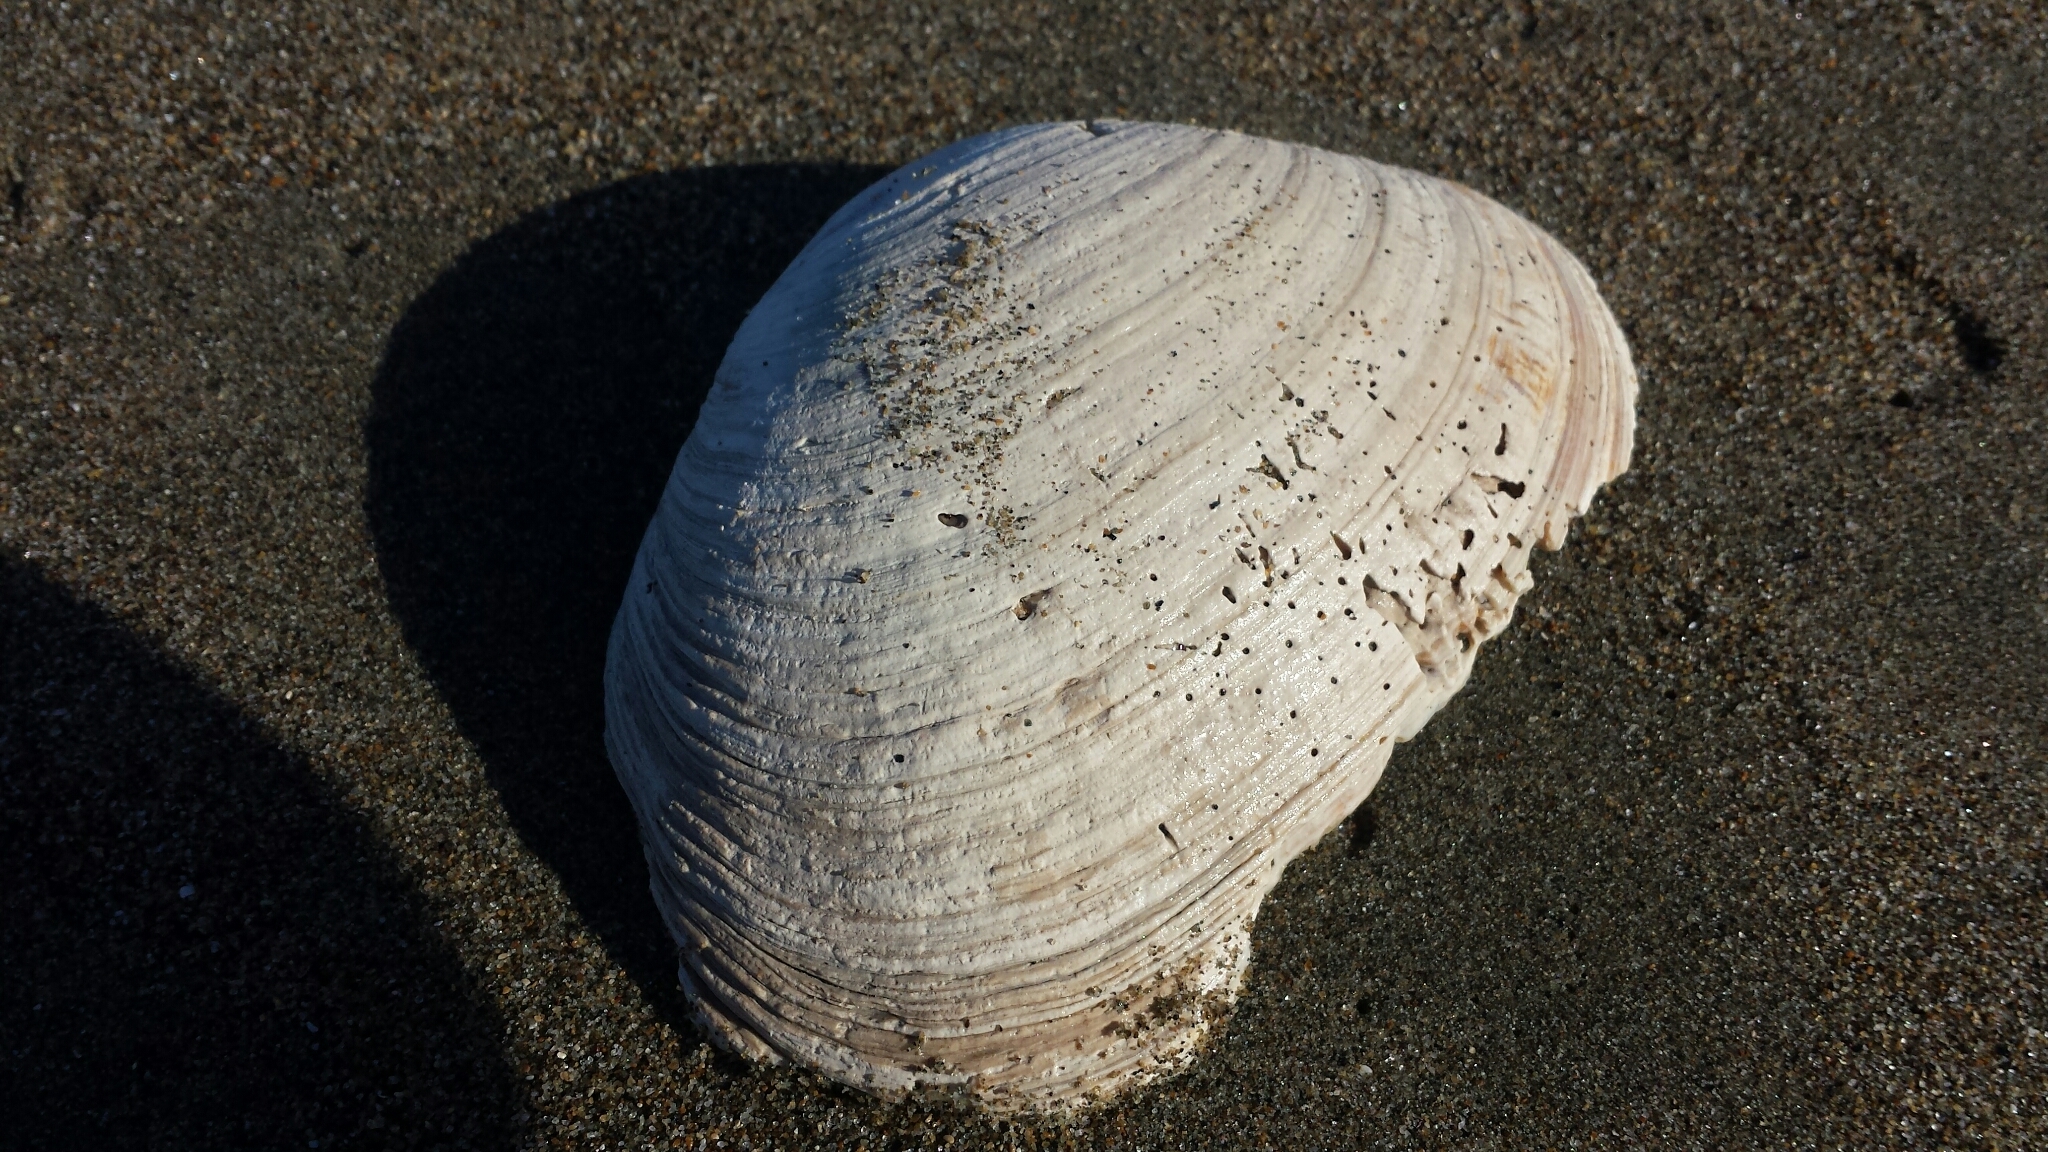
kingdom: Animalia
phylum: Mollusca
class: Bivalvia
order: Venerida
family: Veneridae
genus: Saxidomus
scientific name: Saxidomus nuttalli
